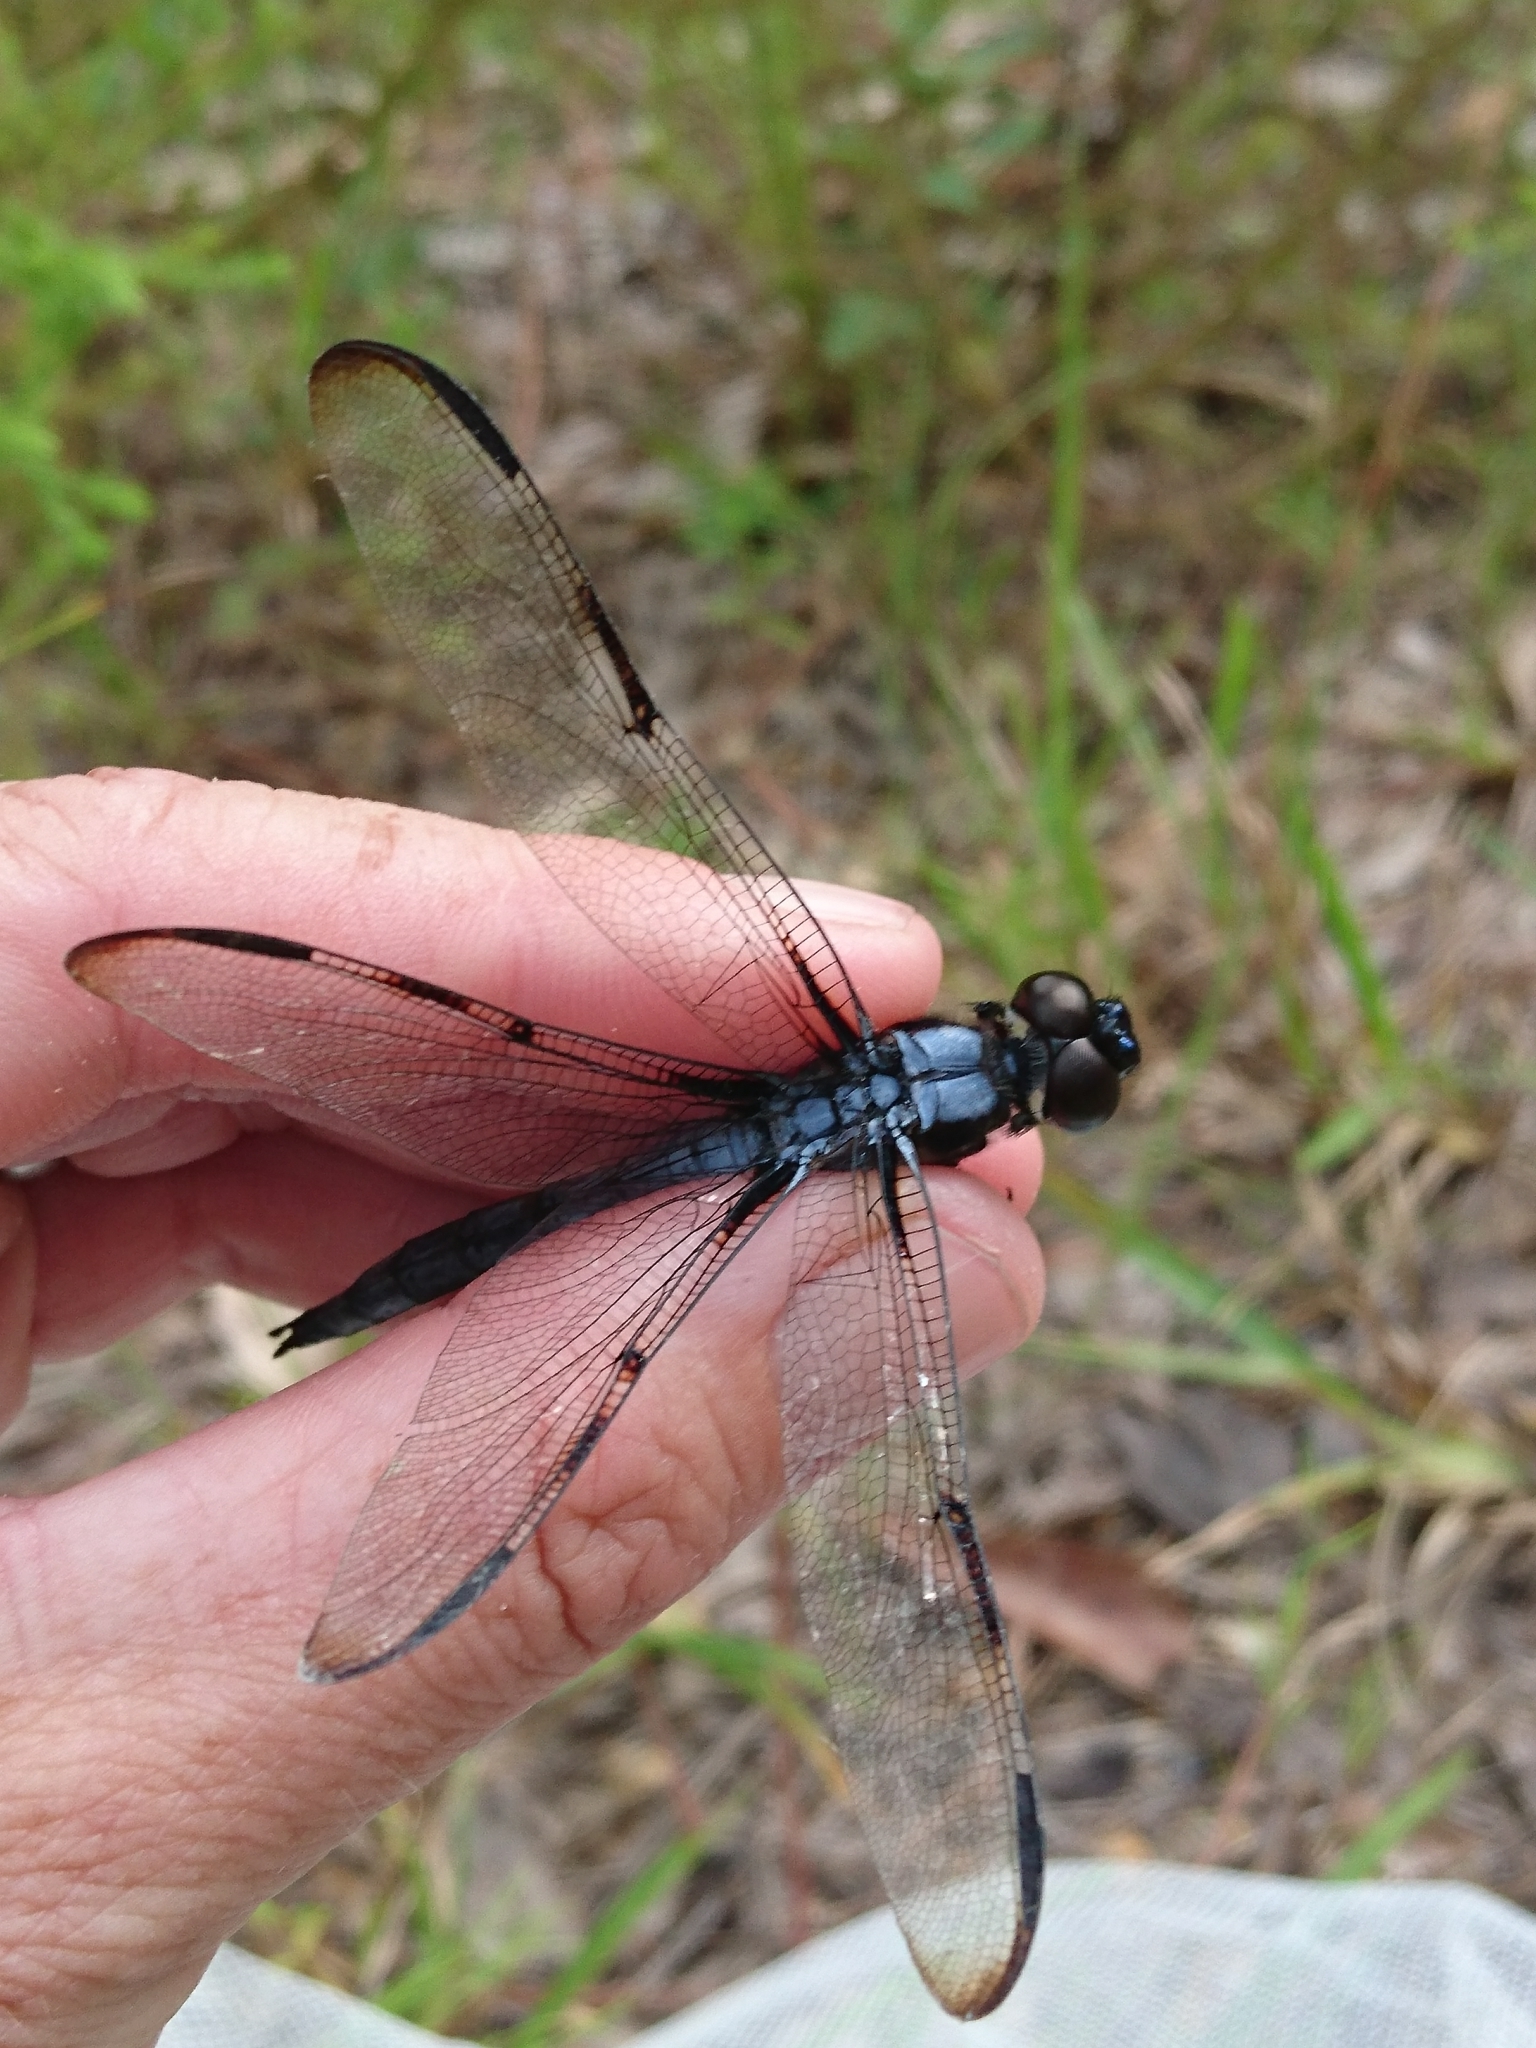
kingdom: Animalia
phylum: Arthropoda
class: Insecta
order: Odonata
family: Libellulidae
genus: Libellula
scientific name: Libellula axilena
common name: Bar-winged skimmer
